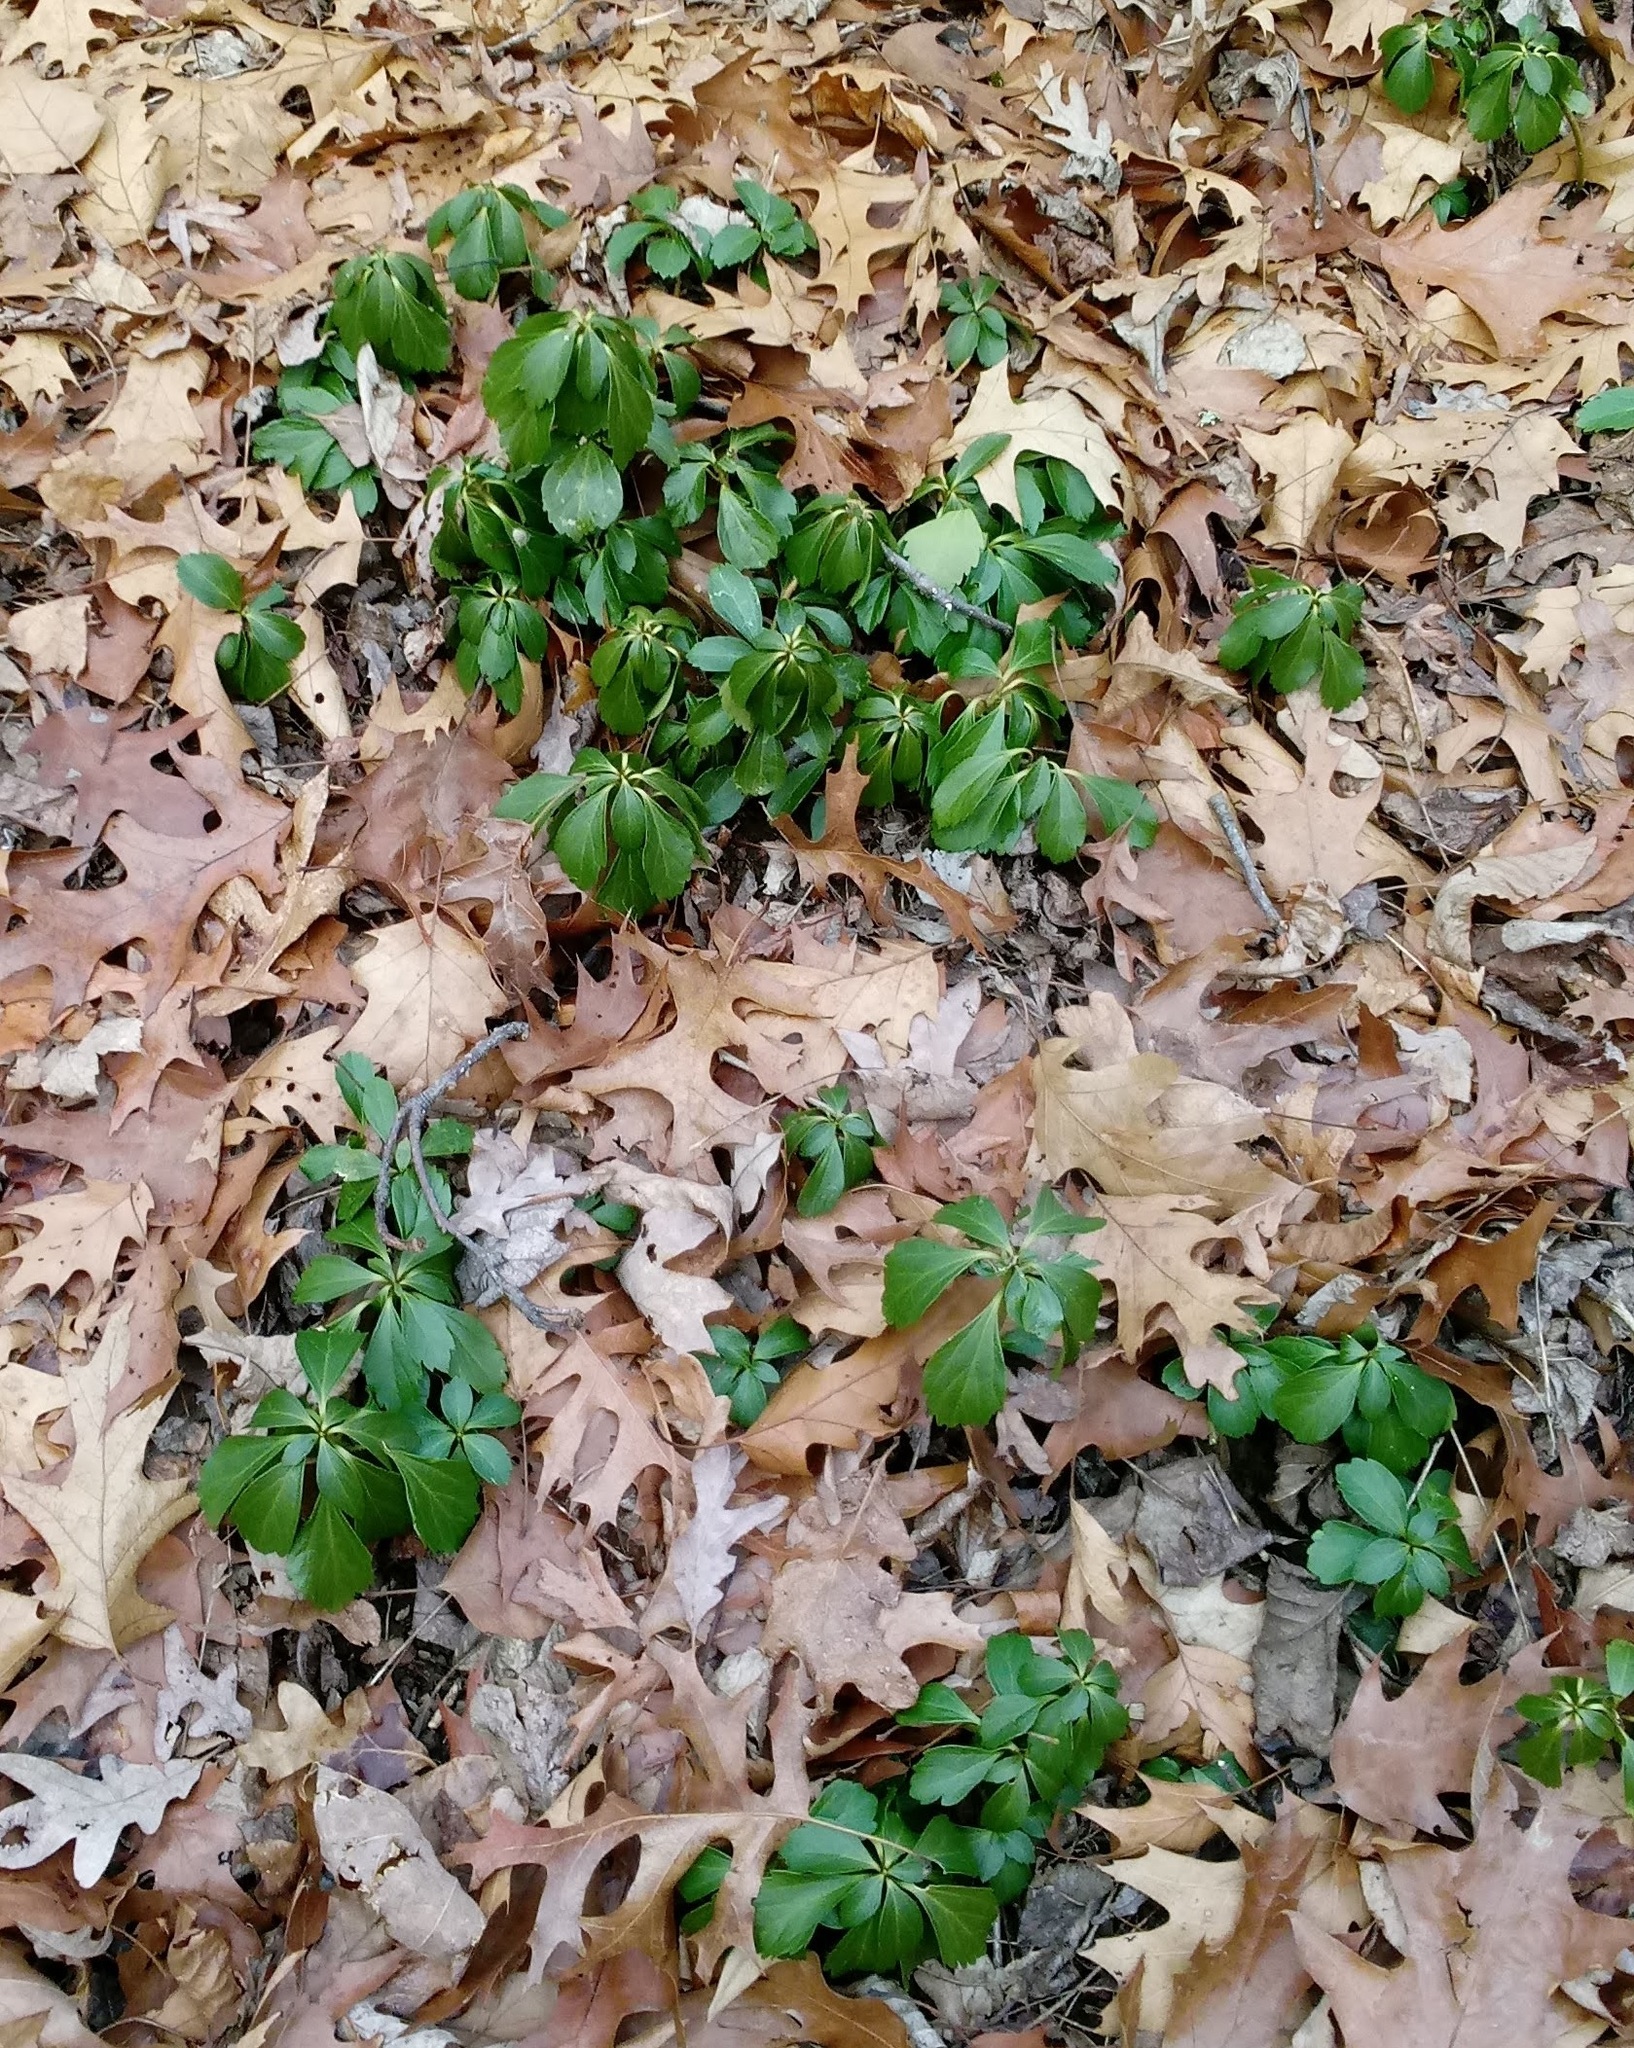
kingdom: Plantae
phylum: Tracheophyta
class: Magnoliopsida
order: Buxales
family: Buxaceae
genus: Pachysandra
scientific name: Pachysandra terminalis
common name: Japanese pachysandra
